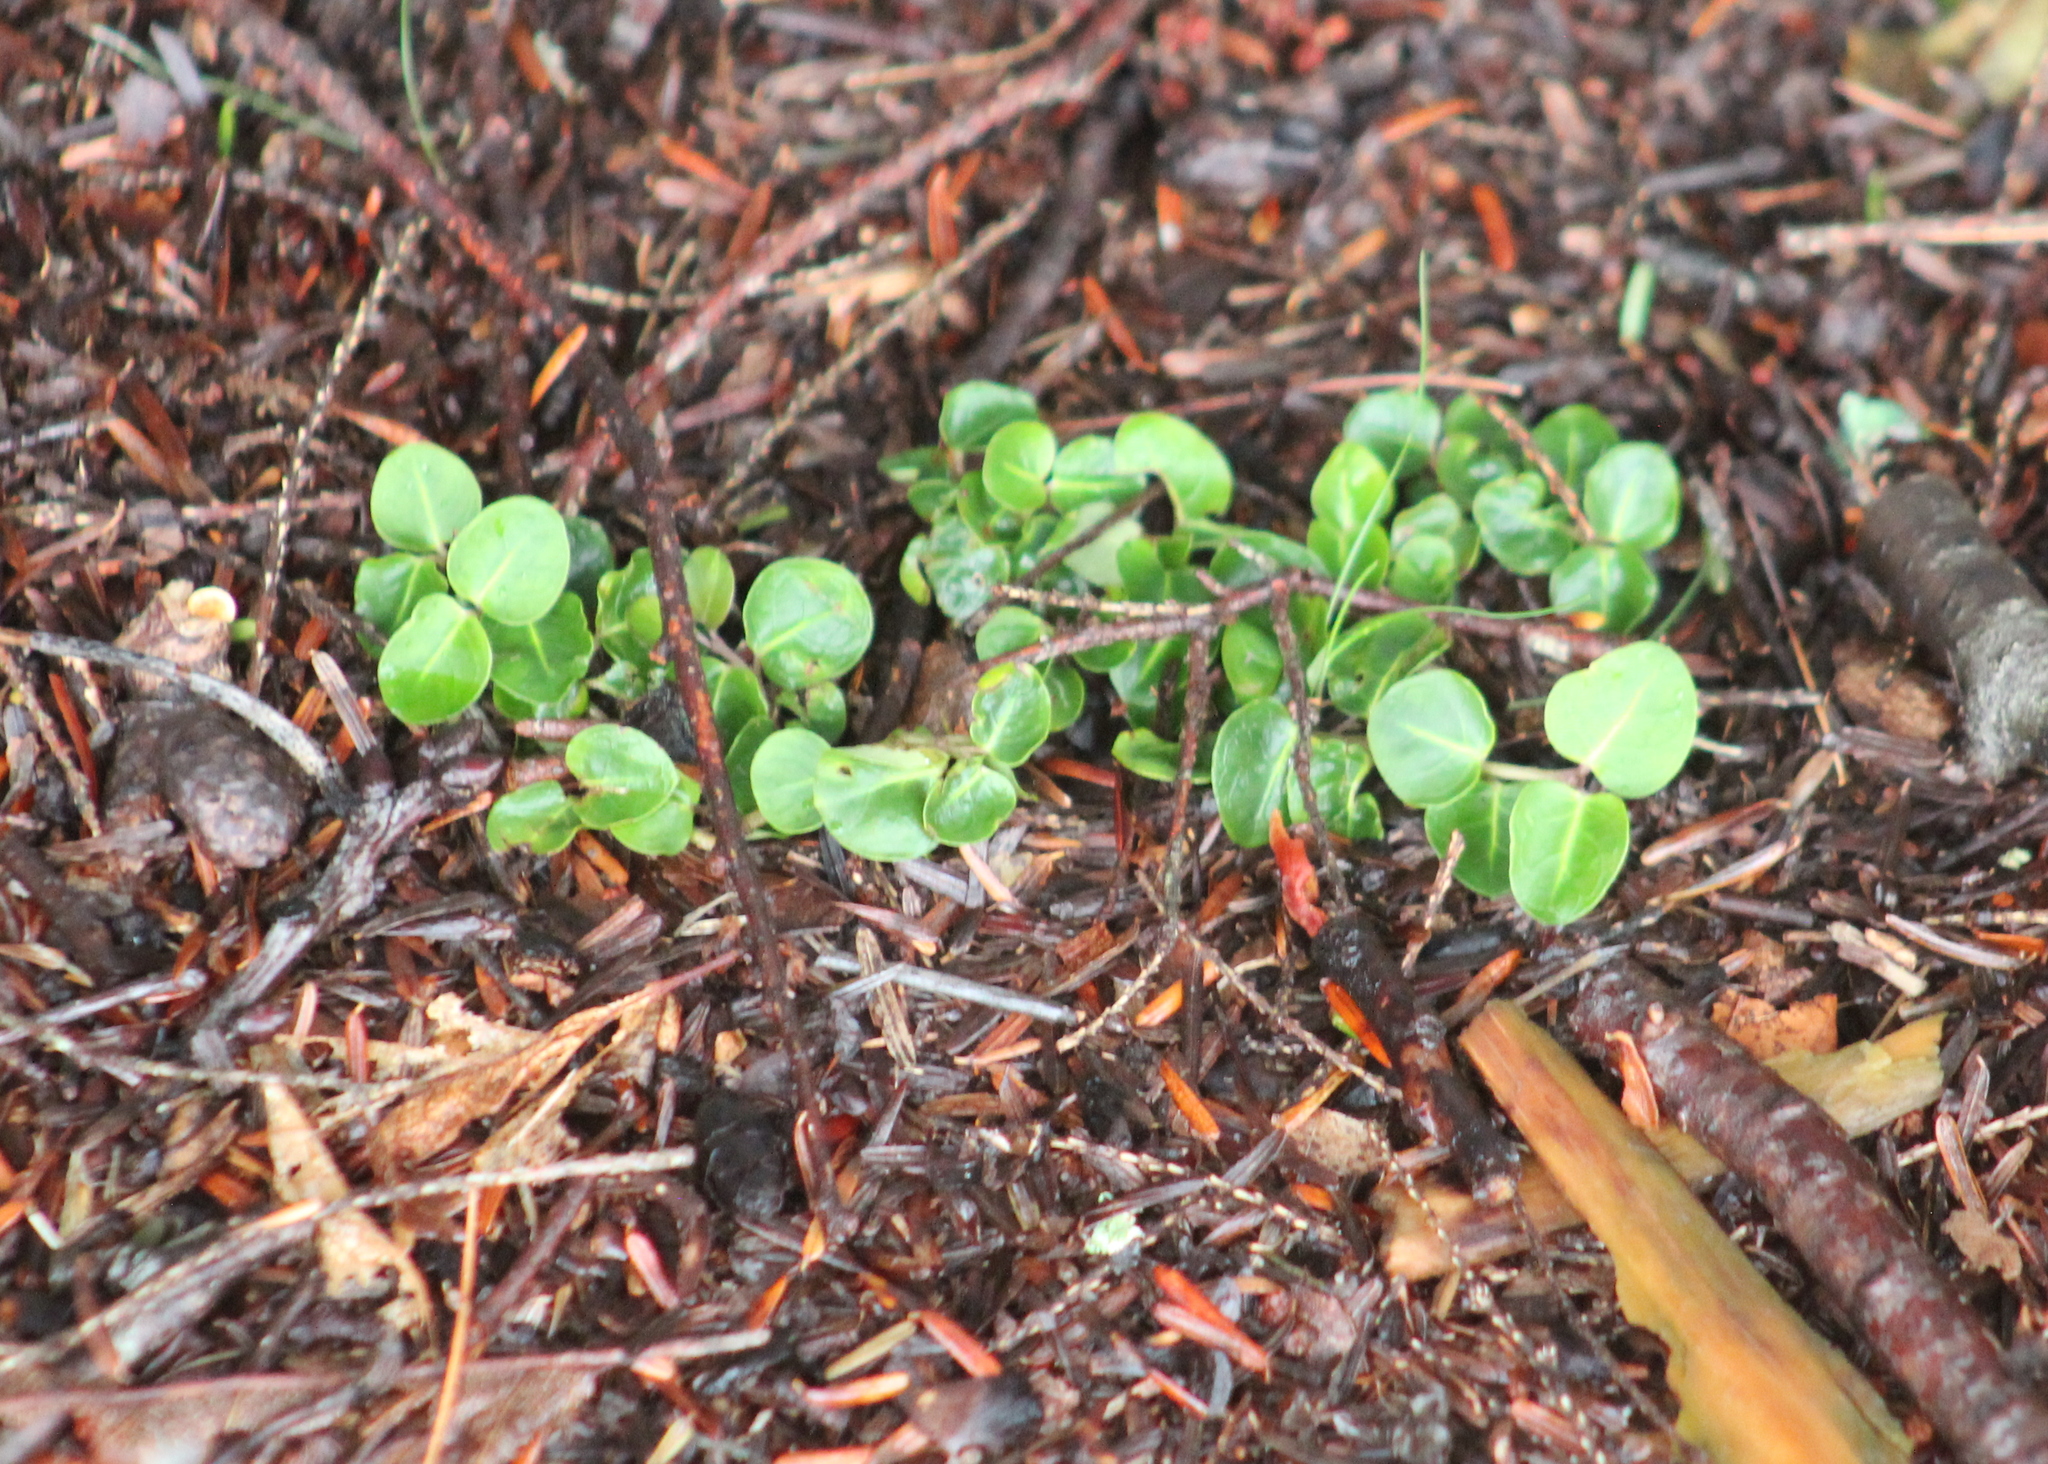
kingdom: Plantae
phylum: Tracheophyta
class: Magnoliopsida
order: Gentianales
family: Rubiaceae
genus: Mitchella
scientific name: Mitchella repens
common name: Partridge-berry
